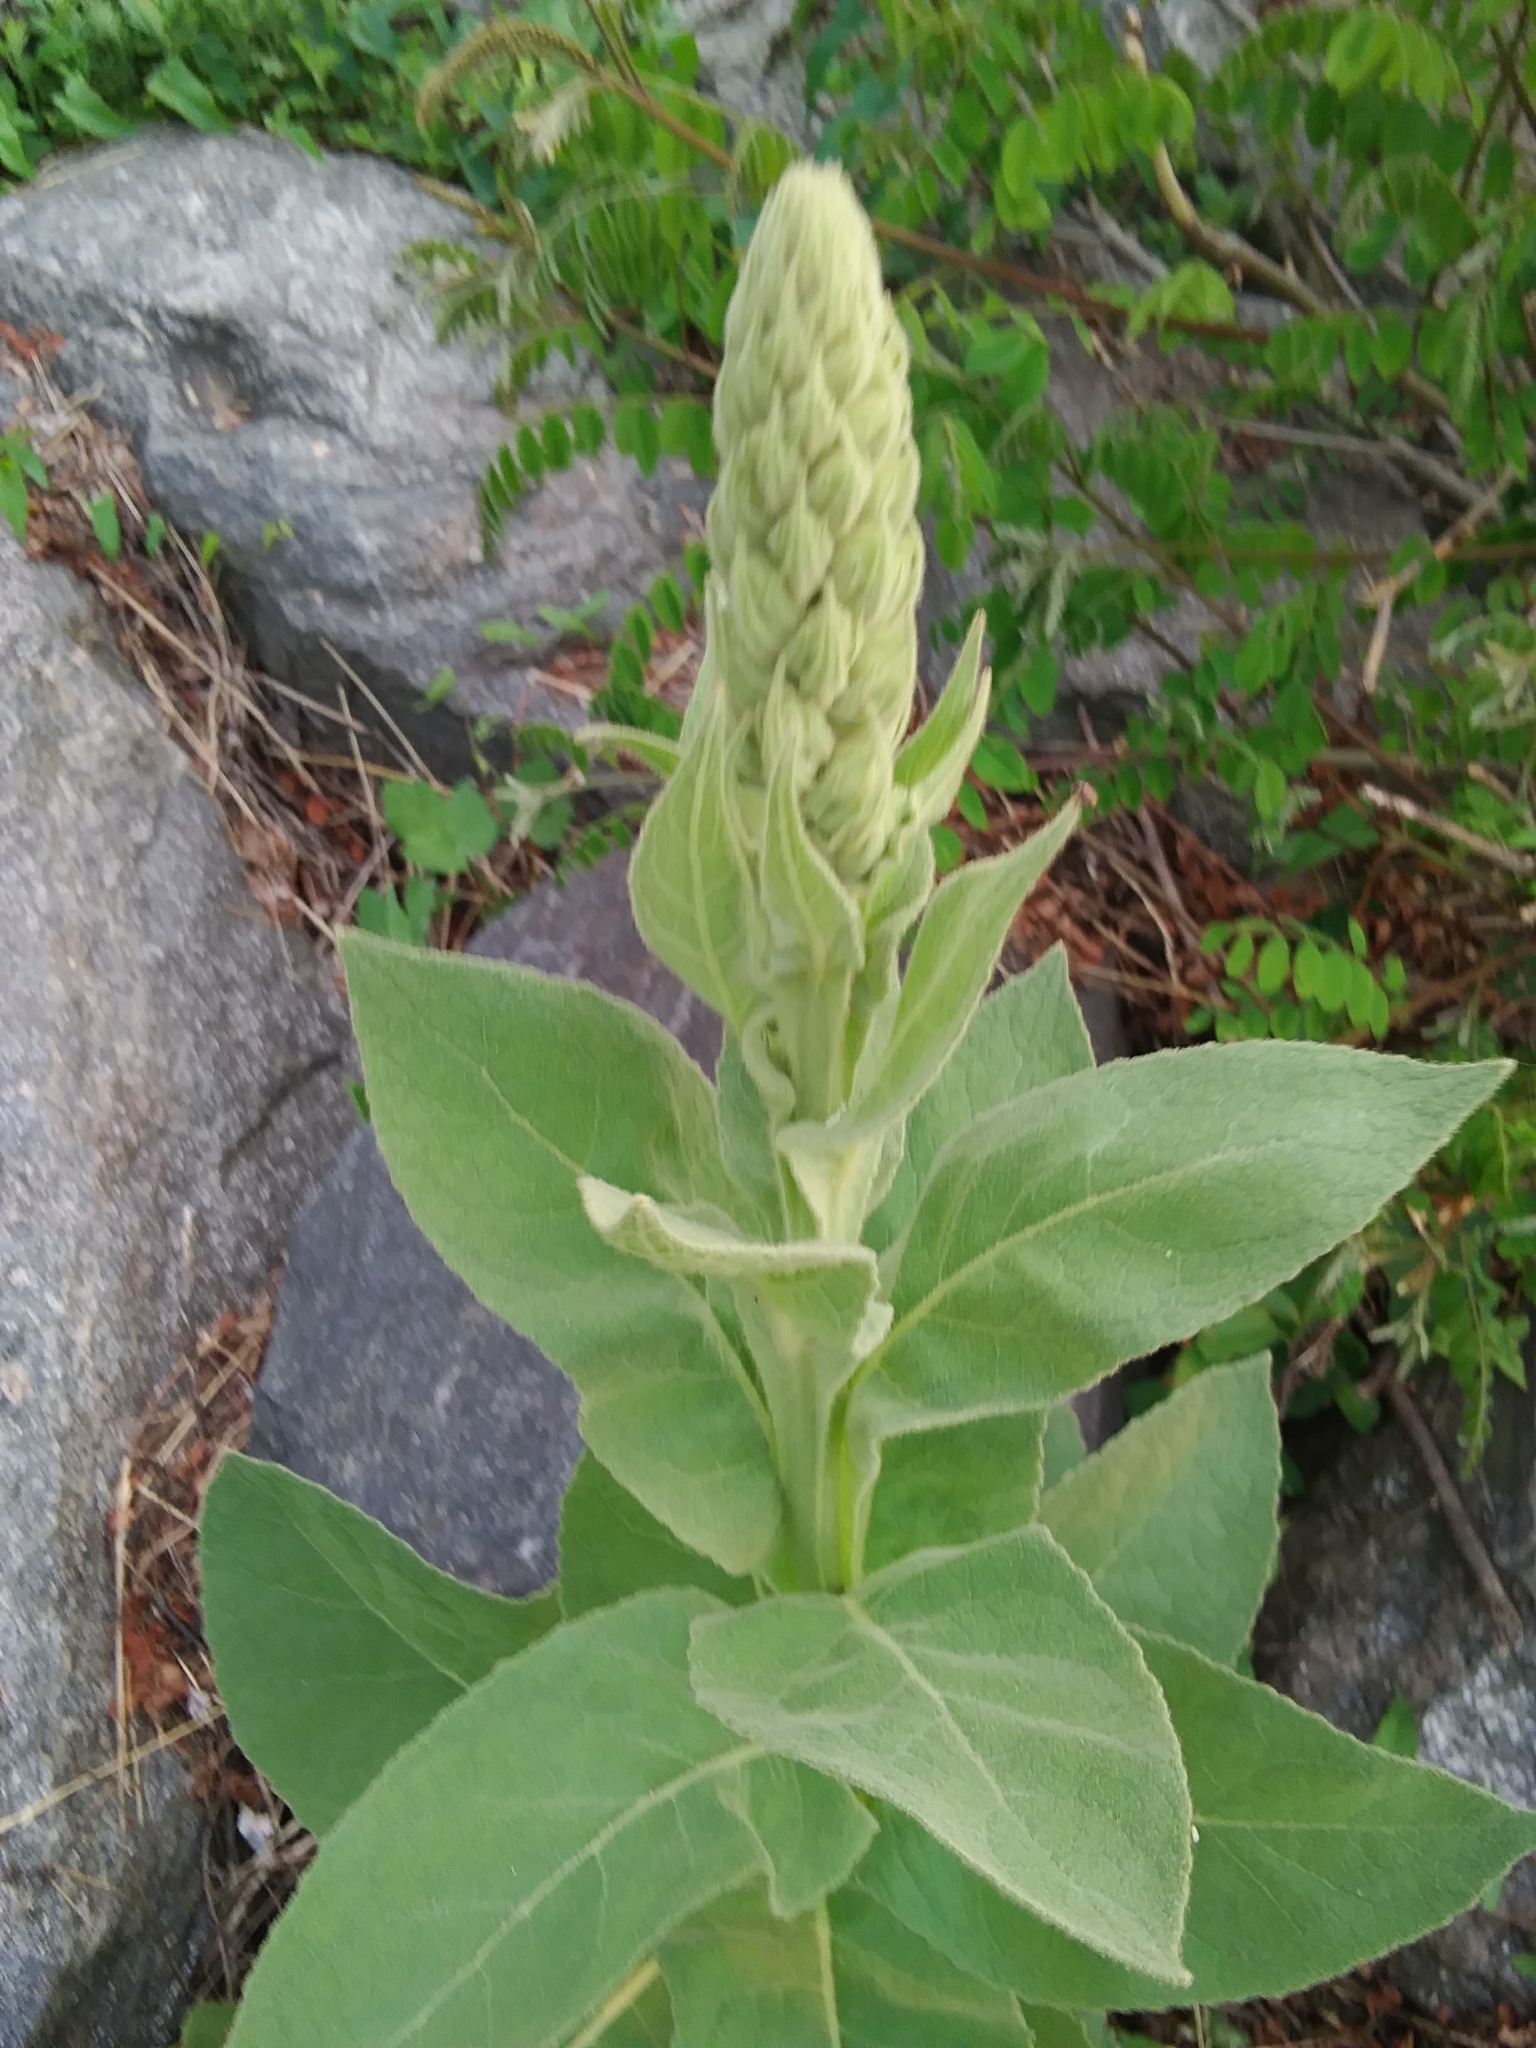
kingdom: Plantae
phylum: Tracheophyta
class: Magnoliopsida
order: Lamiales
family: Scrophulariaceae
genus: Verbascum
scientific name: Verbascum thapsus
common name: Common mullein
